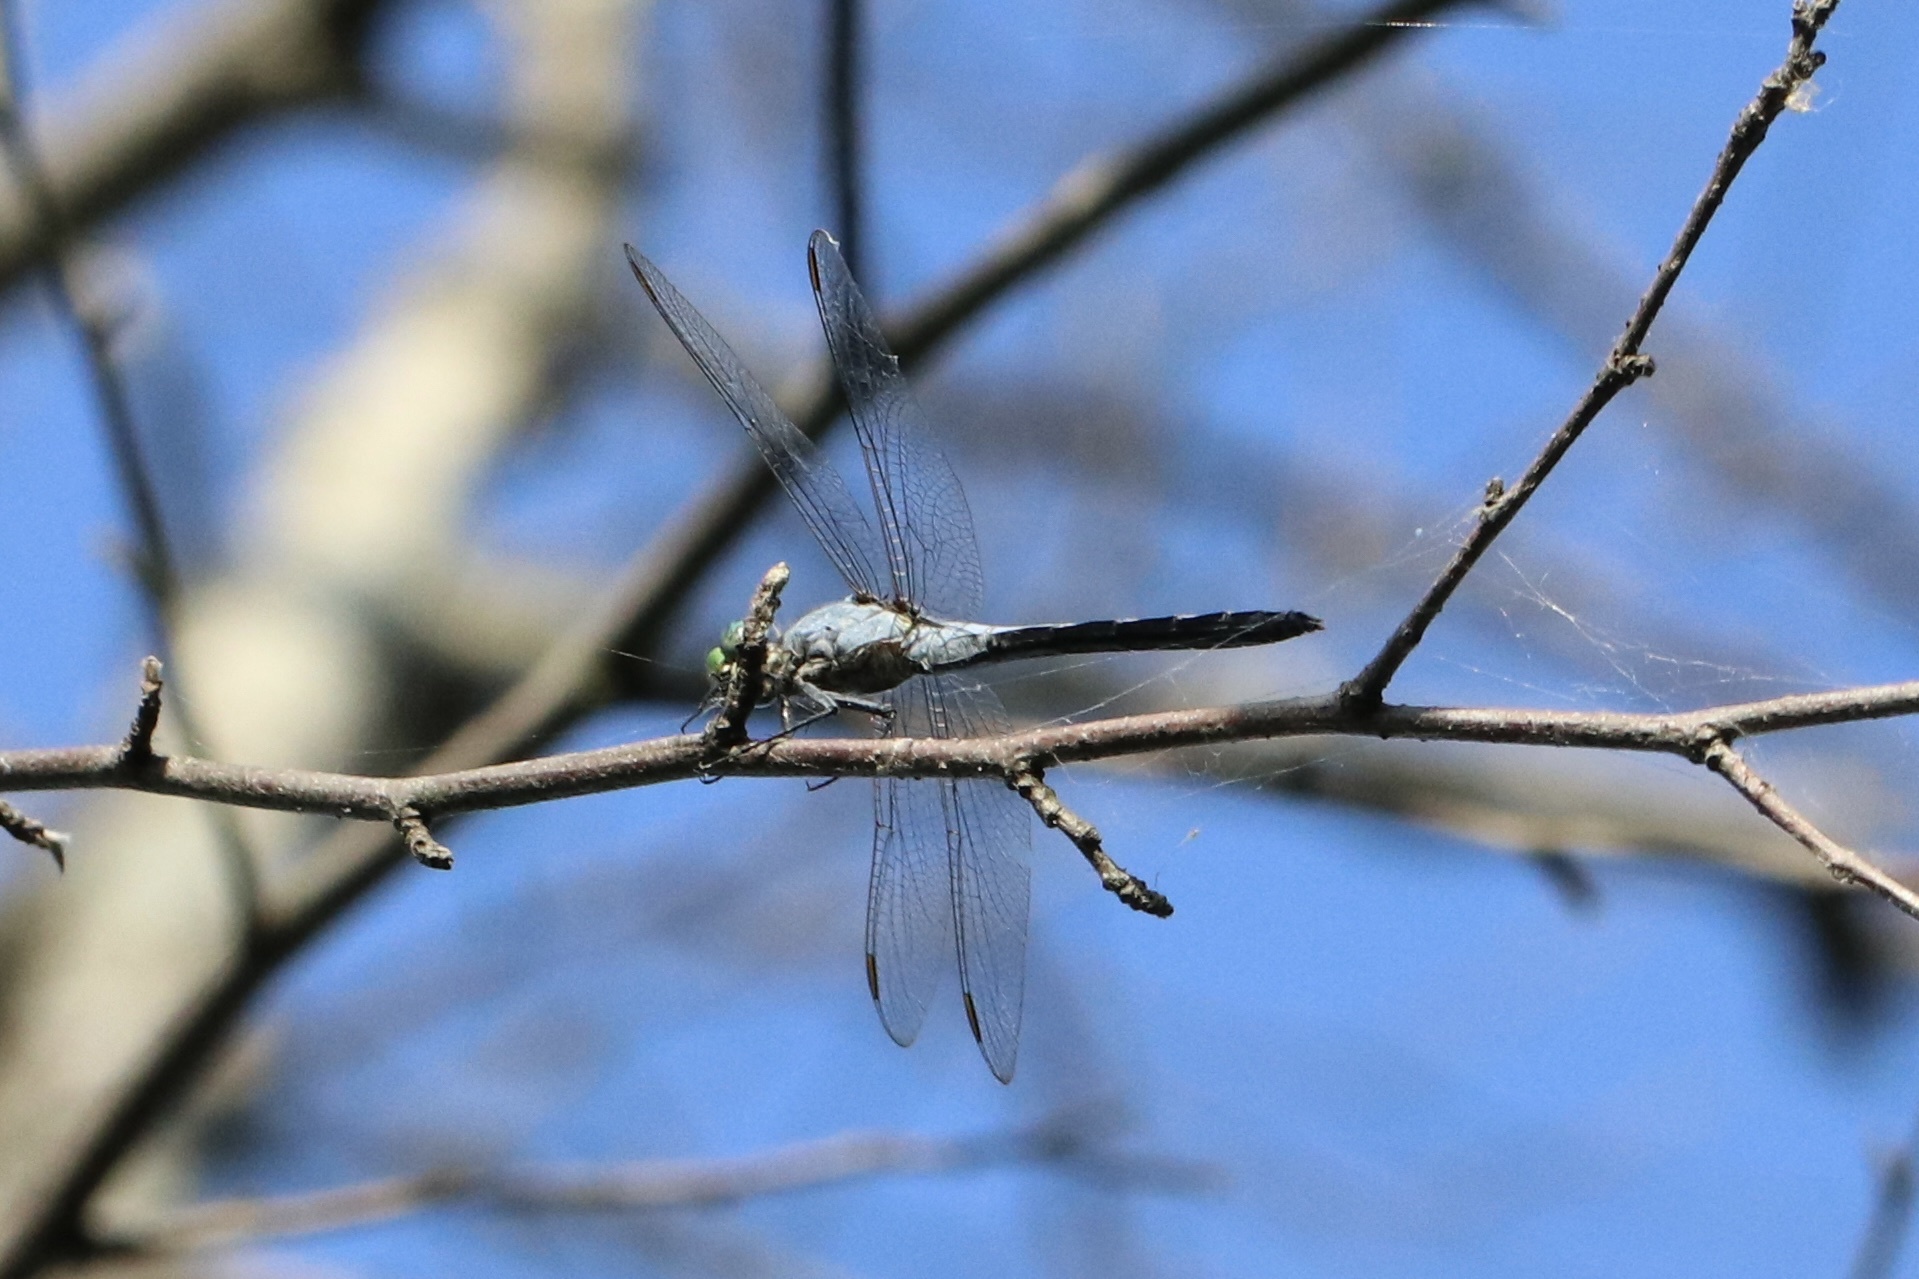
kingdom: Animalia
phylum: Arthropoda
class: Insecta
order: Odonata
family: Libellulidae
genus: Erythemis
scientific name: Erythemis simplicicollis
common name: Eastern pondhawk
